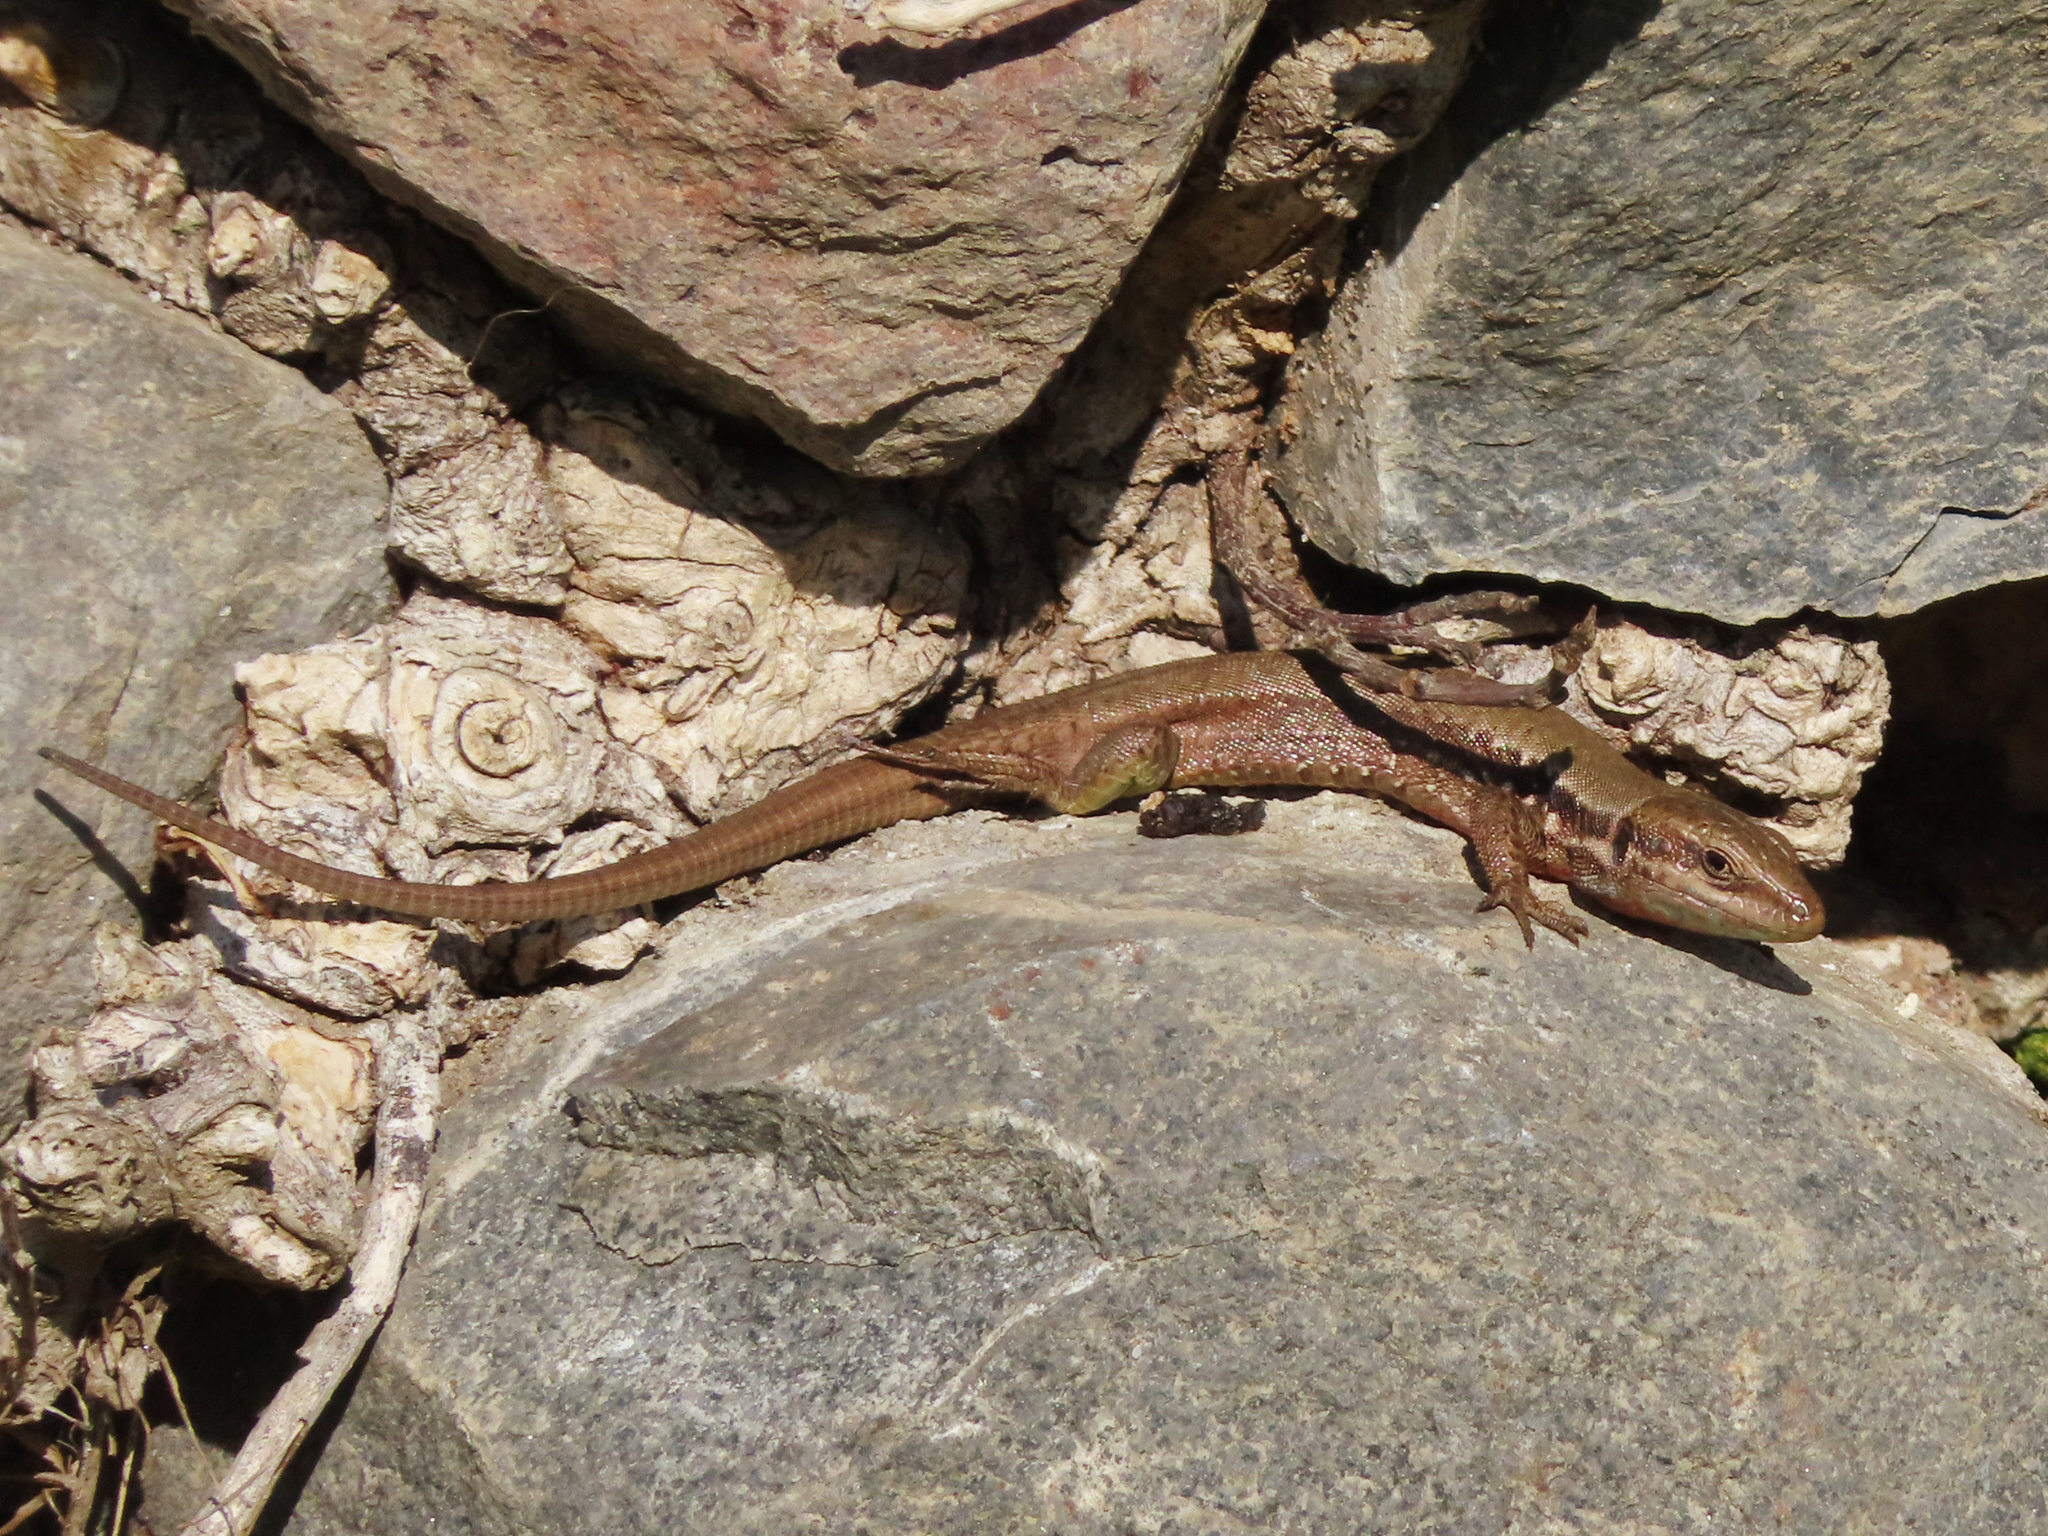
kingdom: Animalia
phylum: Chordata
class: Squamata
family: Lacertidae
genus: Phoenicolacerta
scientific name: Phoenicolacerta laevis
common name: Lebanon lizard
